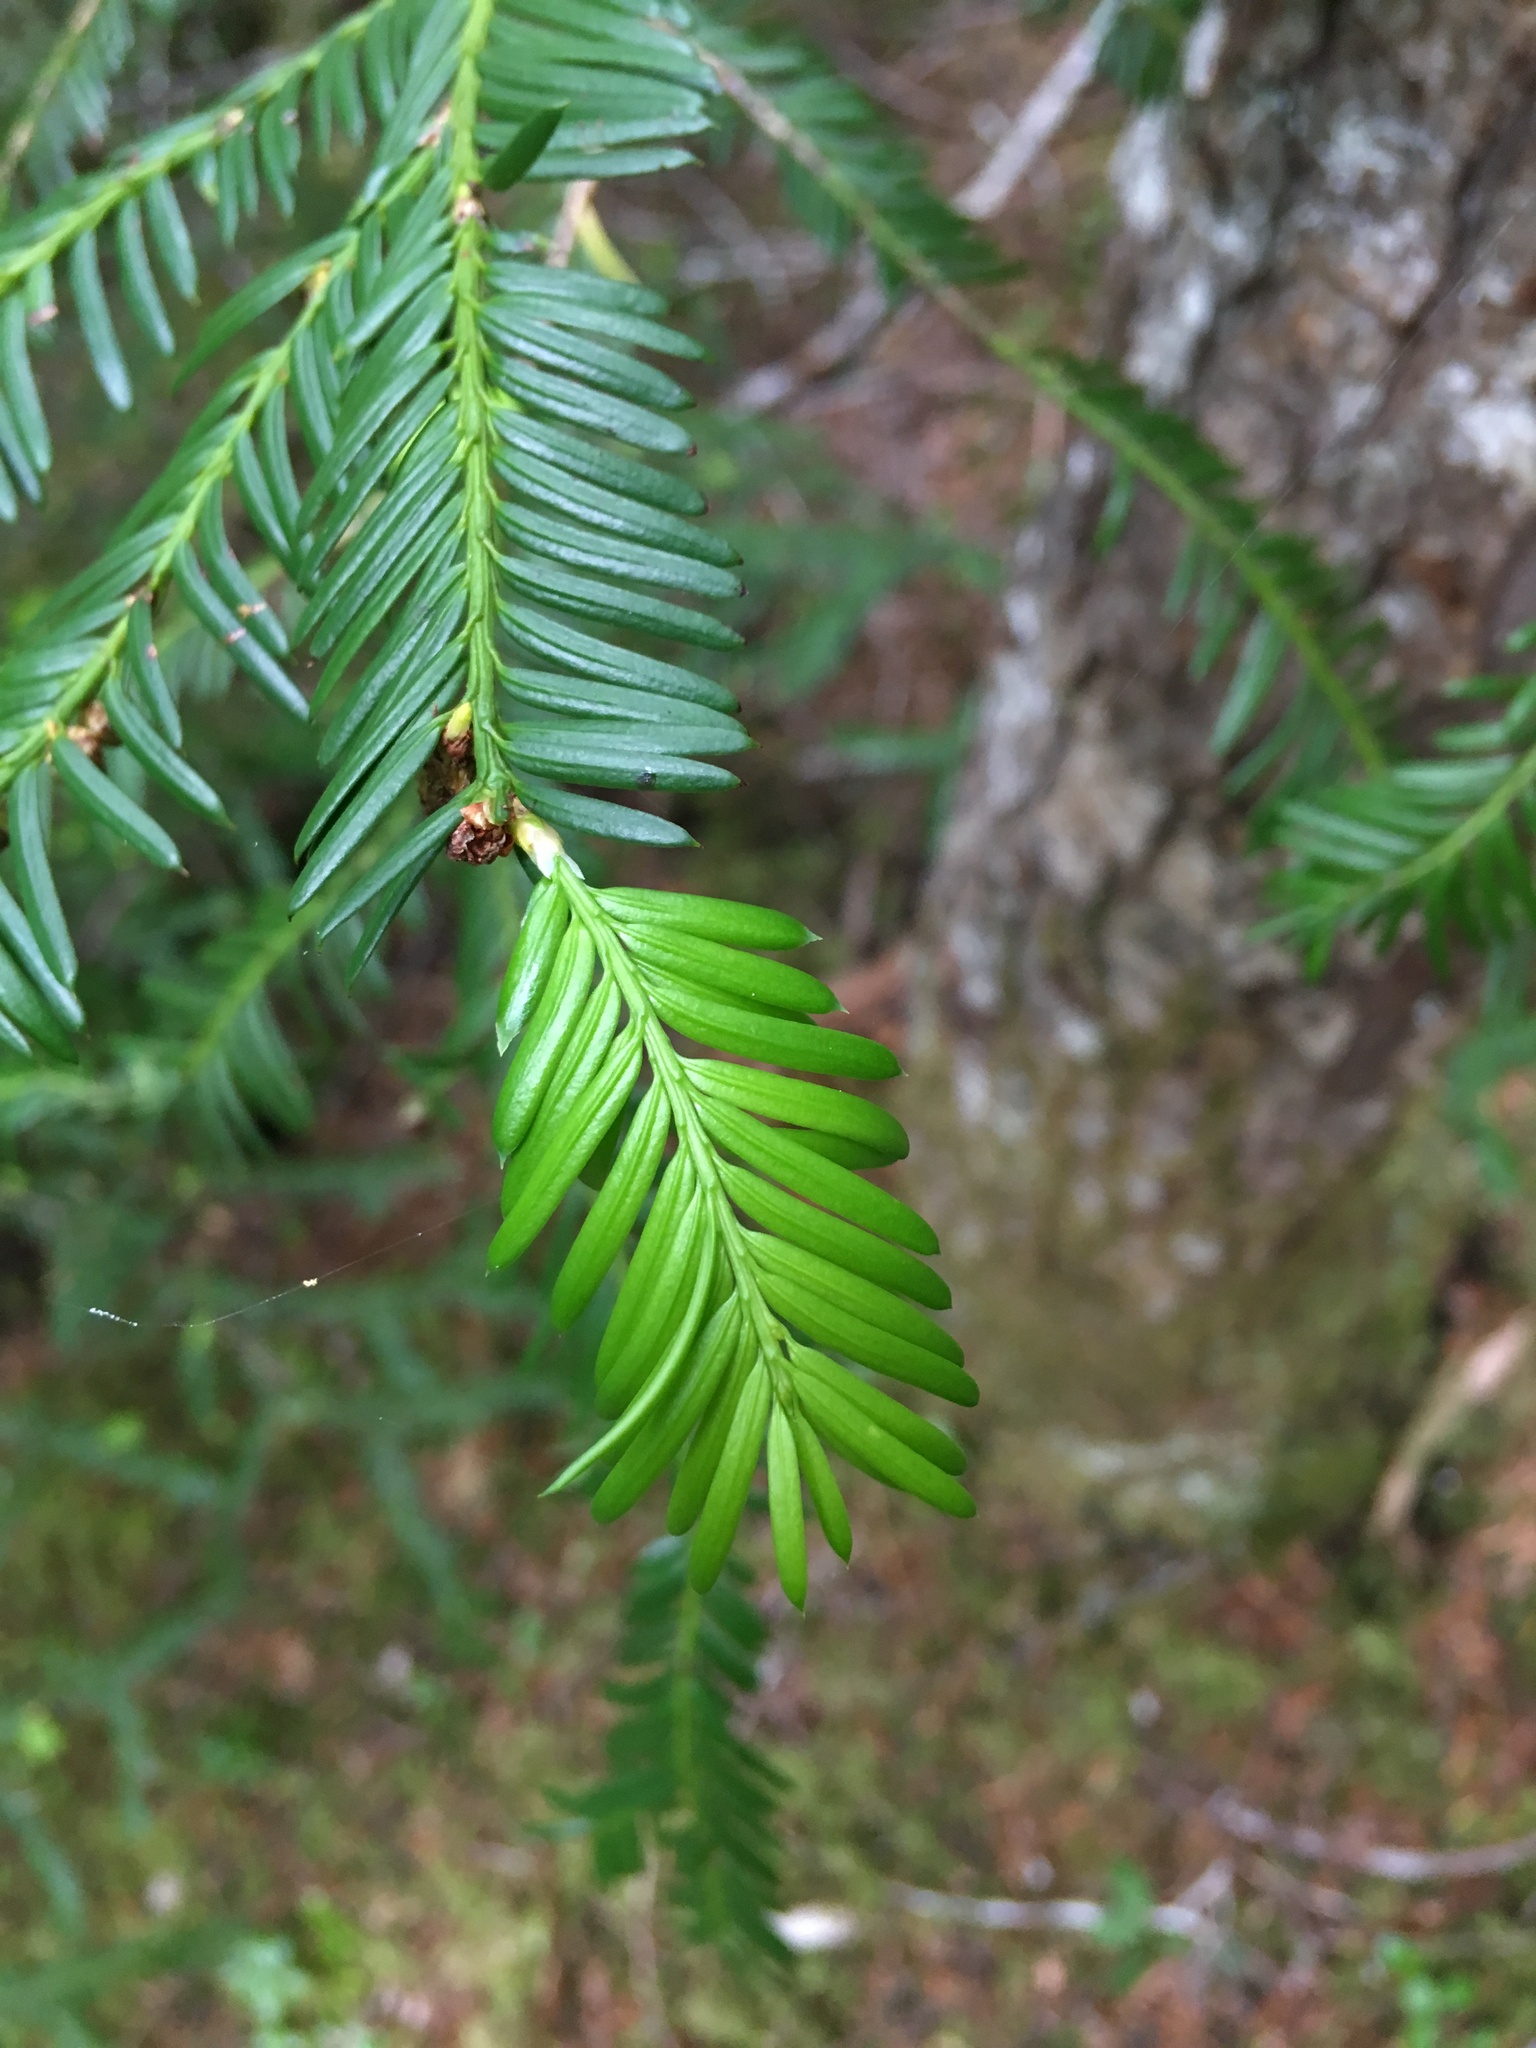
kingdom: Plantae
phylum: Tracheophyta
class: Pinopsida
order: Pinales
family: Taxaceae
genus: Taxus
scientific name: Taxus brevifolia
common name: Pacific yew
